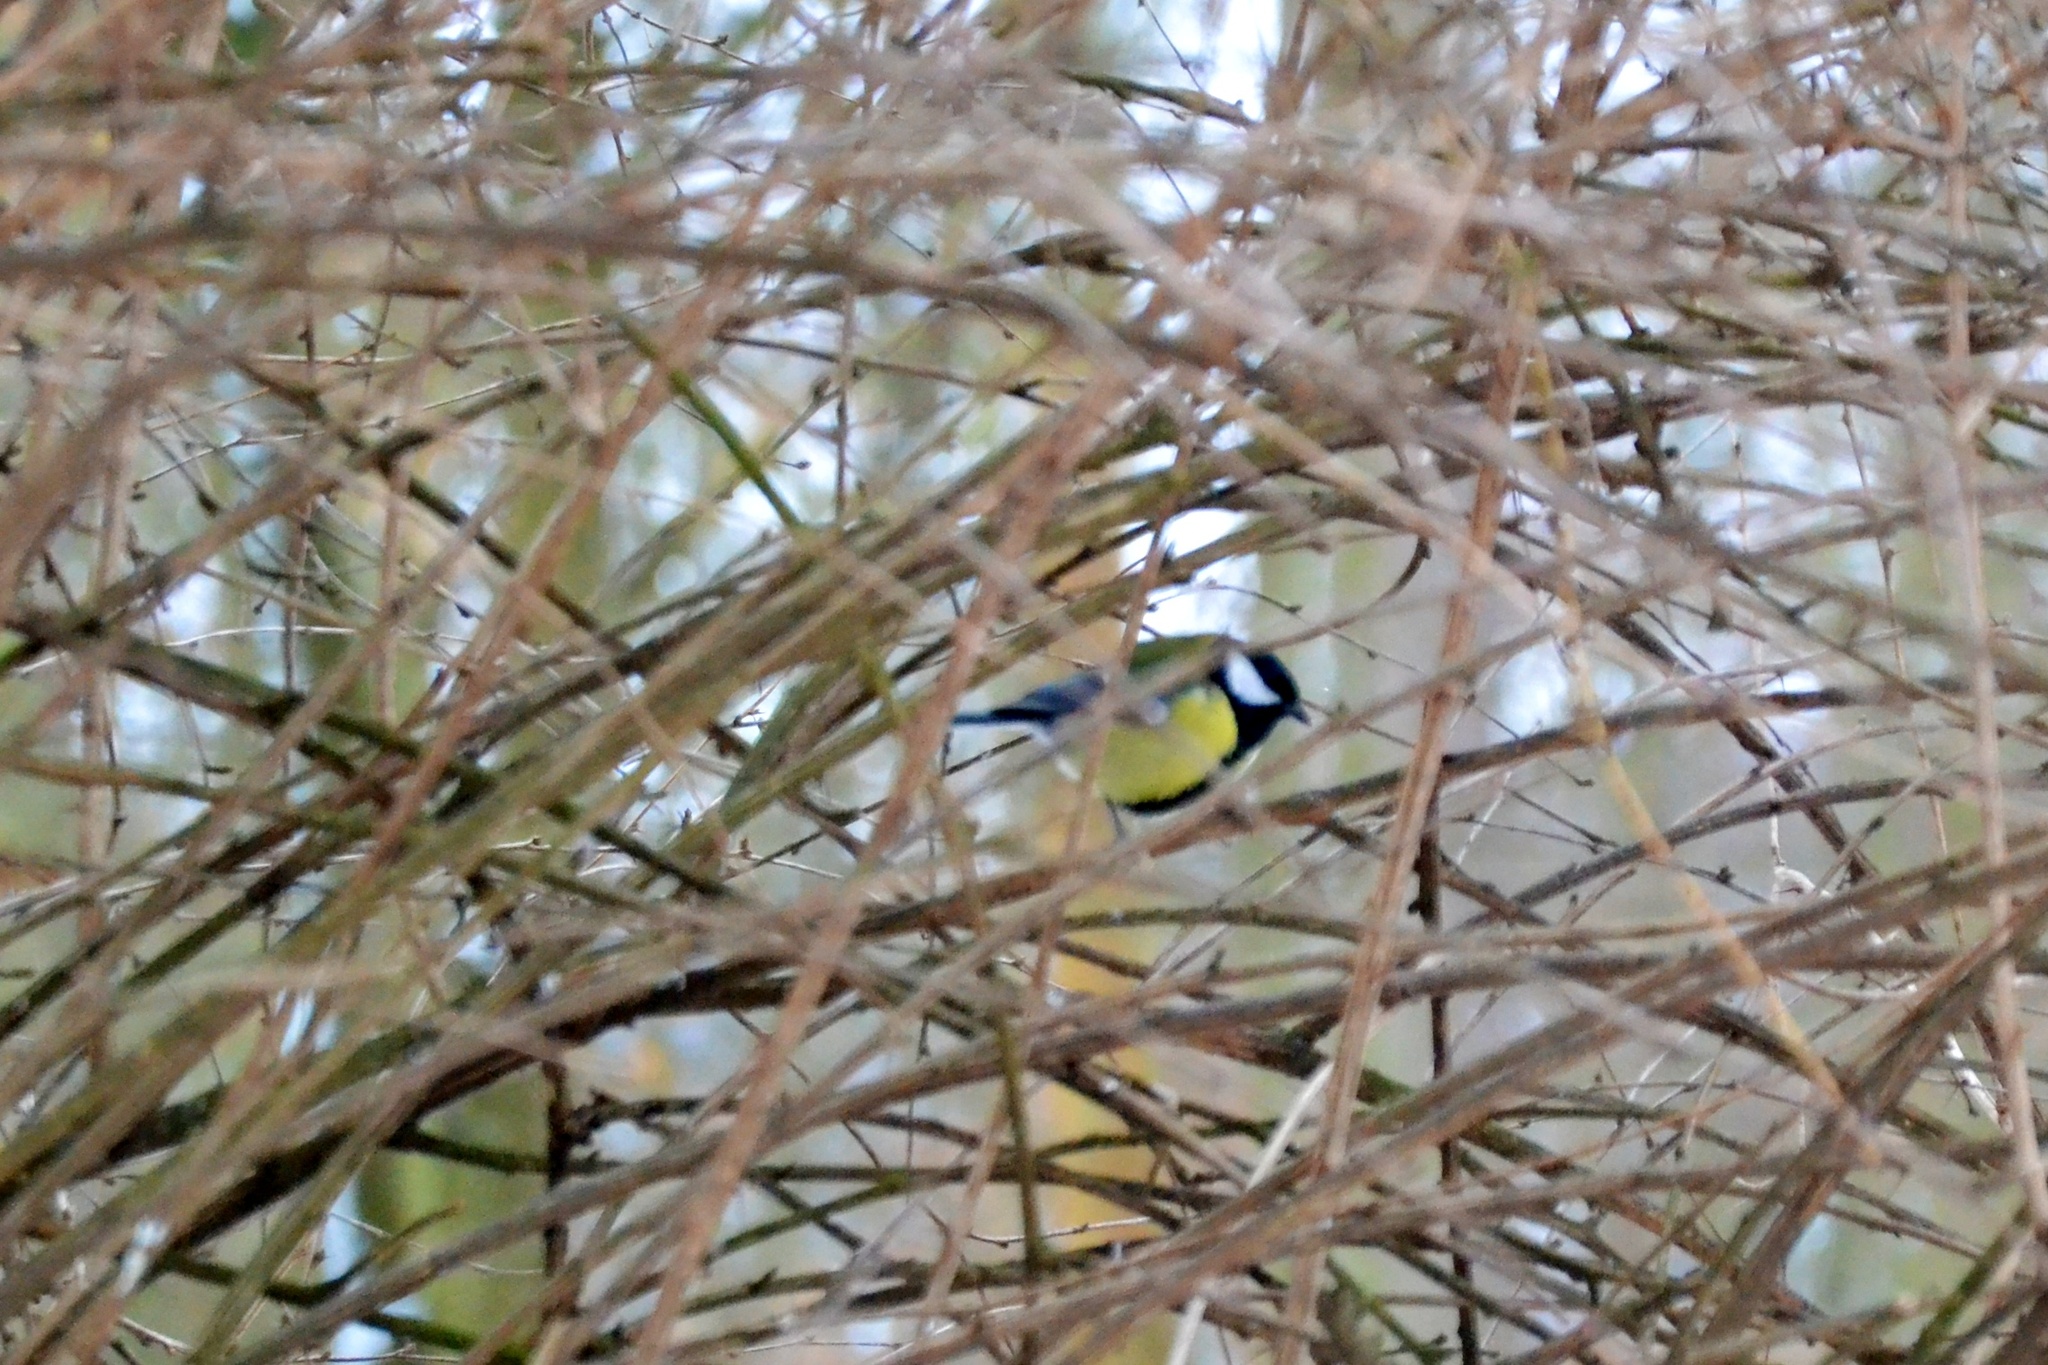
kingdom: Animalia
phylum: Chordata
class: Aves
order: Passeriformes
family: Paridae
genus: Parus
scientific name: Parus major
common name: Great tit
